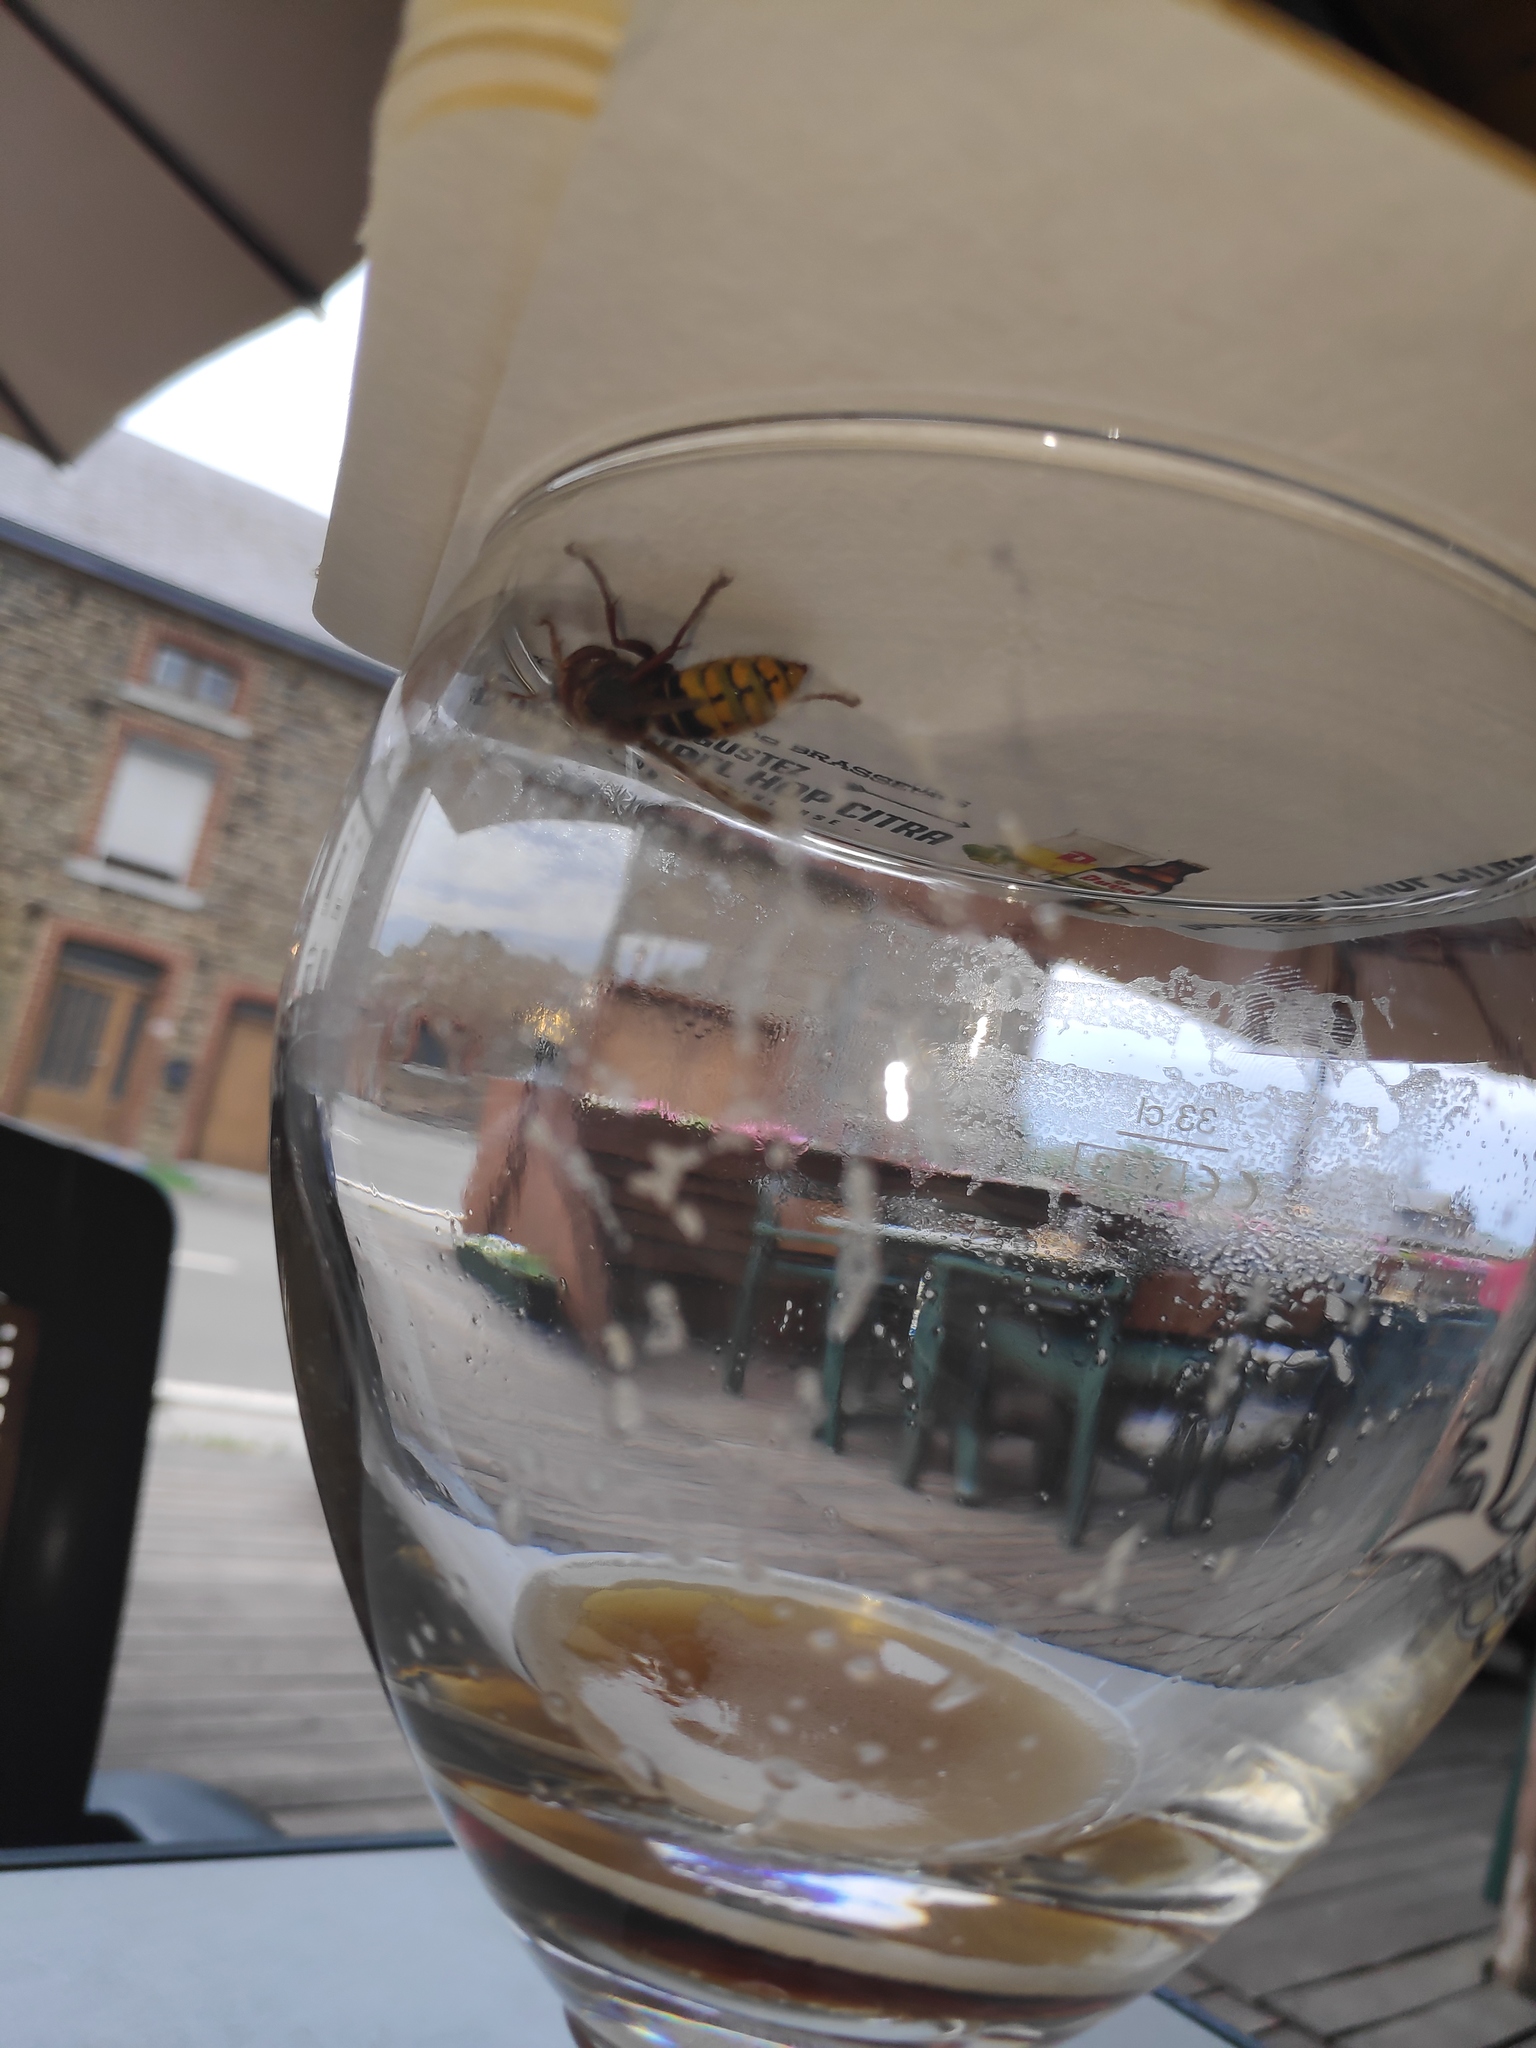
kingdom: Animalia
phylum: Arthropoda
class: Insecta
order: Hymenoptera
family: Vespidae
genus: Vespa
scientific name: Vespa crabro
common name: Hornet
